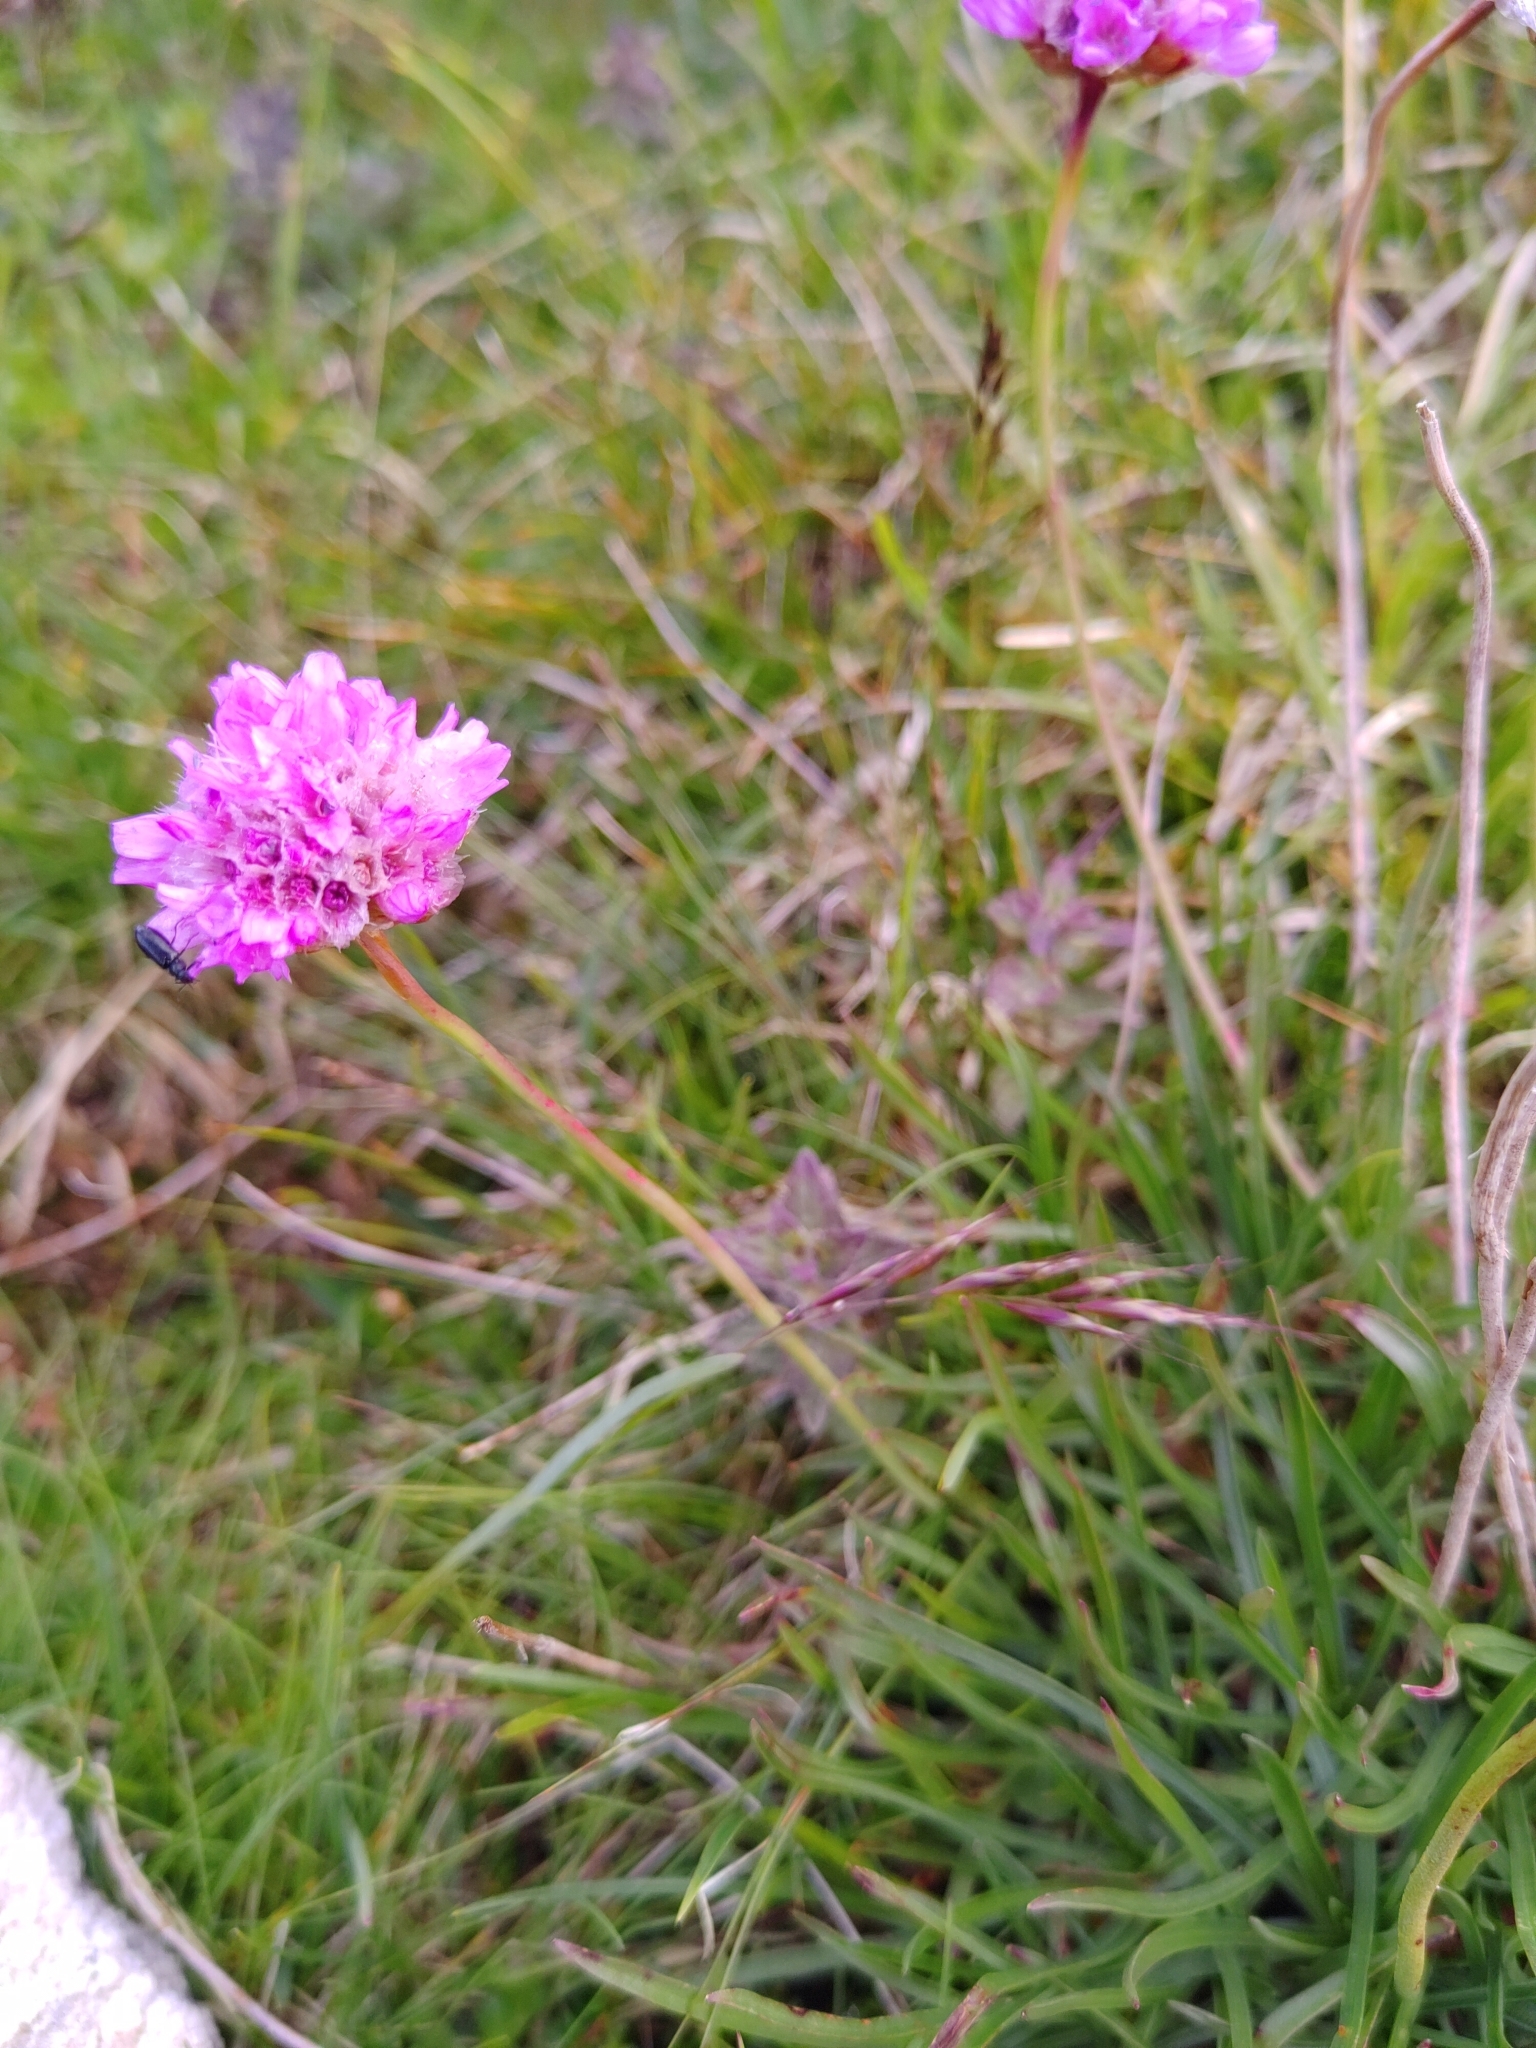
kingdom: Plantae
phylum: Tracheophyta
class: Magnoliopsida
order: Caryophyllales
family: Plumbaginaceae
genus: Armeria
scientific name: Armeria alpina
